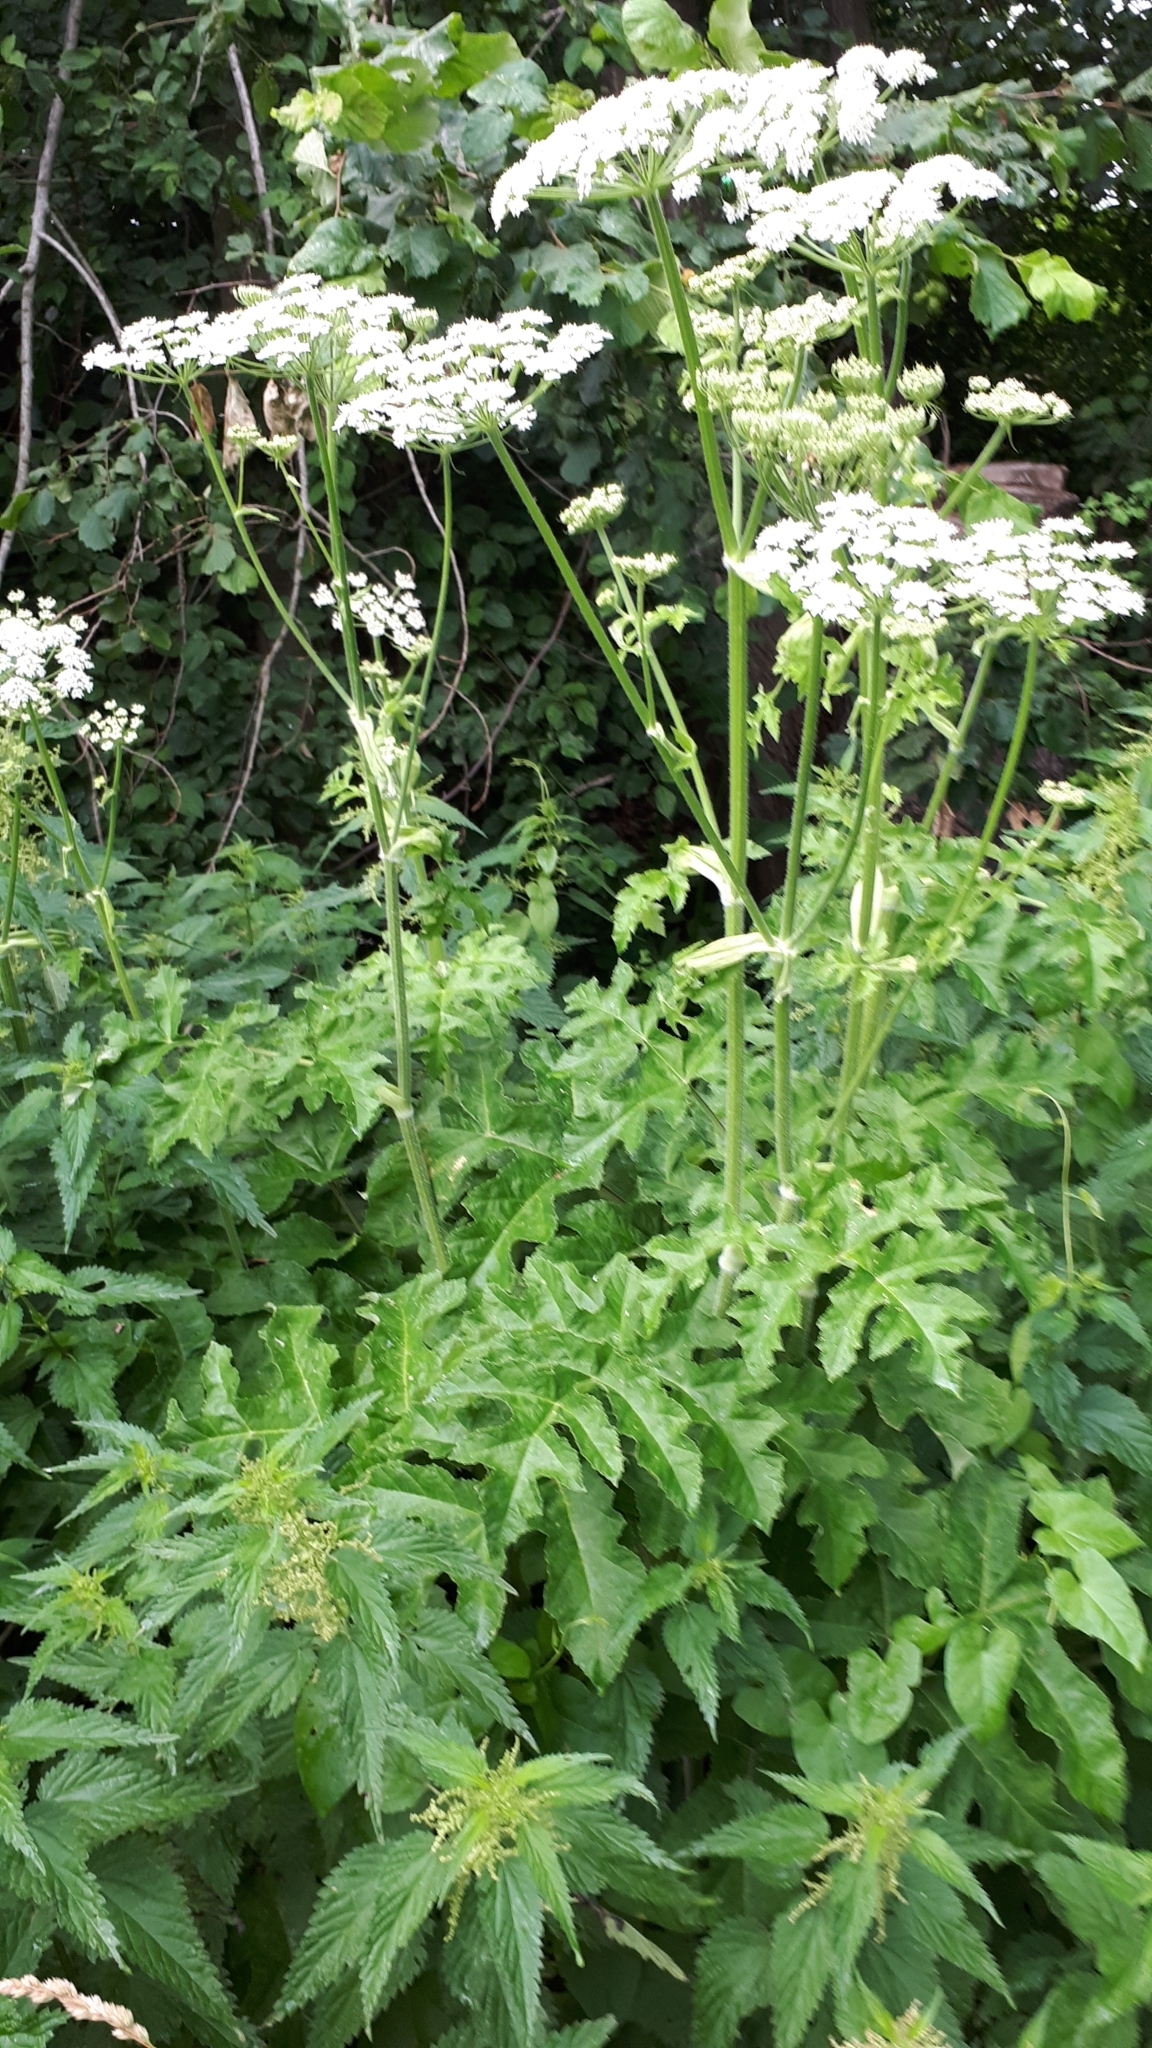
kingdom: Plantae
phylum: Tracheophyta
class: Magnoliopsida
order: Apiales
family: Apiaceae
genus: Heracleum
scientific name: Heracleum sphondylium
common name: Hogweed
